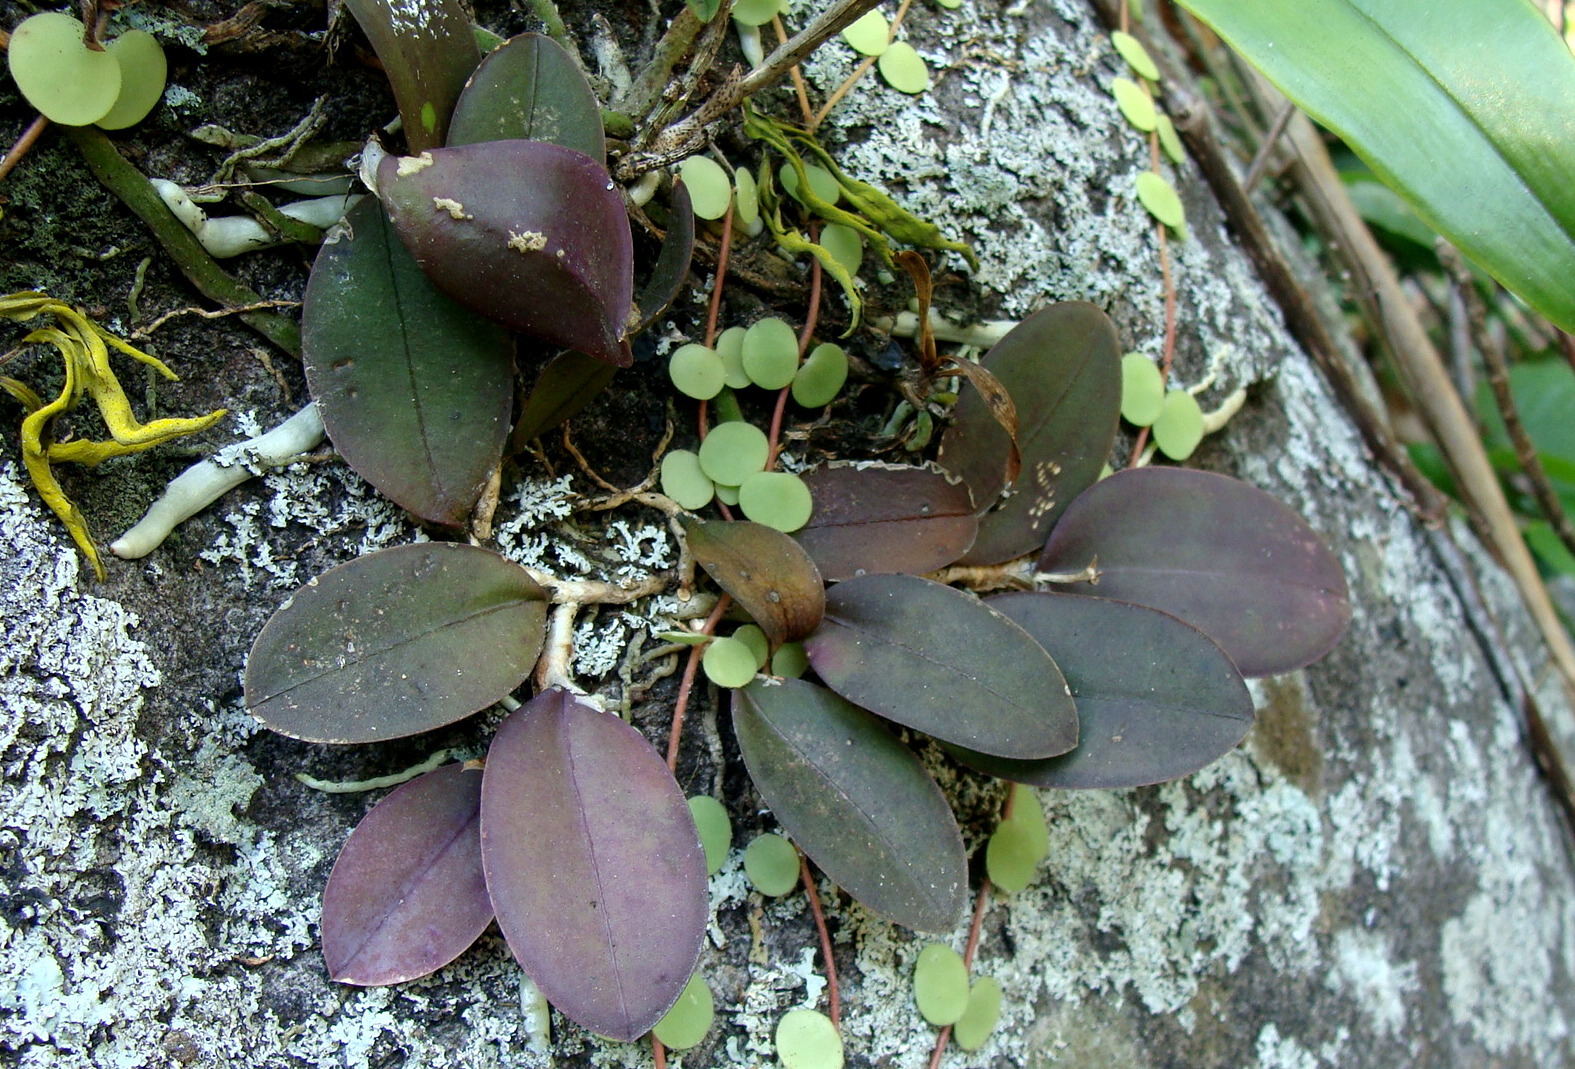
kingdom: Plantae
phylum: Tracheophyta
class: Liliopsida
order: Asparagales
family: Orchidaceae
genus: Meiracyllium
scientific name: Meiracyllium trinasutum
